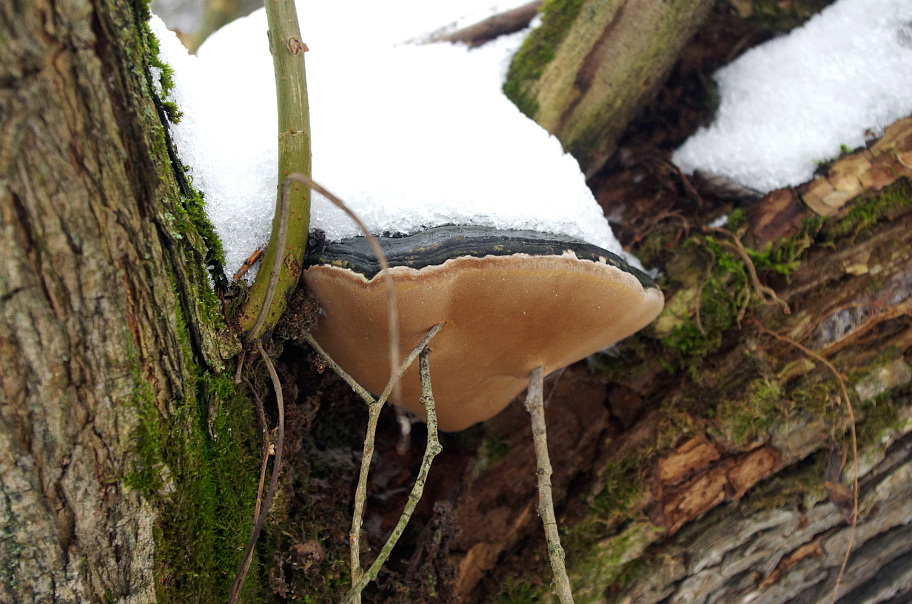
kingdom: Fungi
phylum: Basidiomycota
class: Agaricomycetes
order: Hymenochaetales
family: Hymenochaetaceae
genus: Phellinus
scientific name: Phellinus igniarius
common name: Willow bracket
